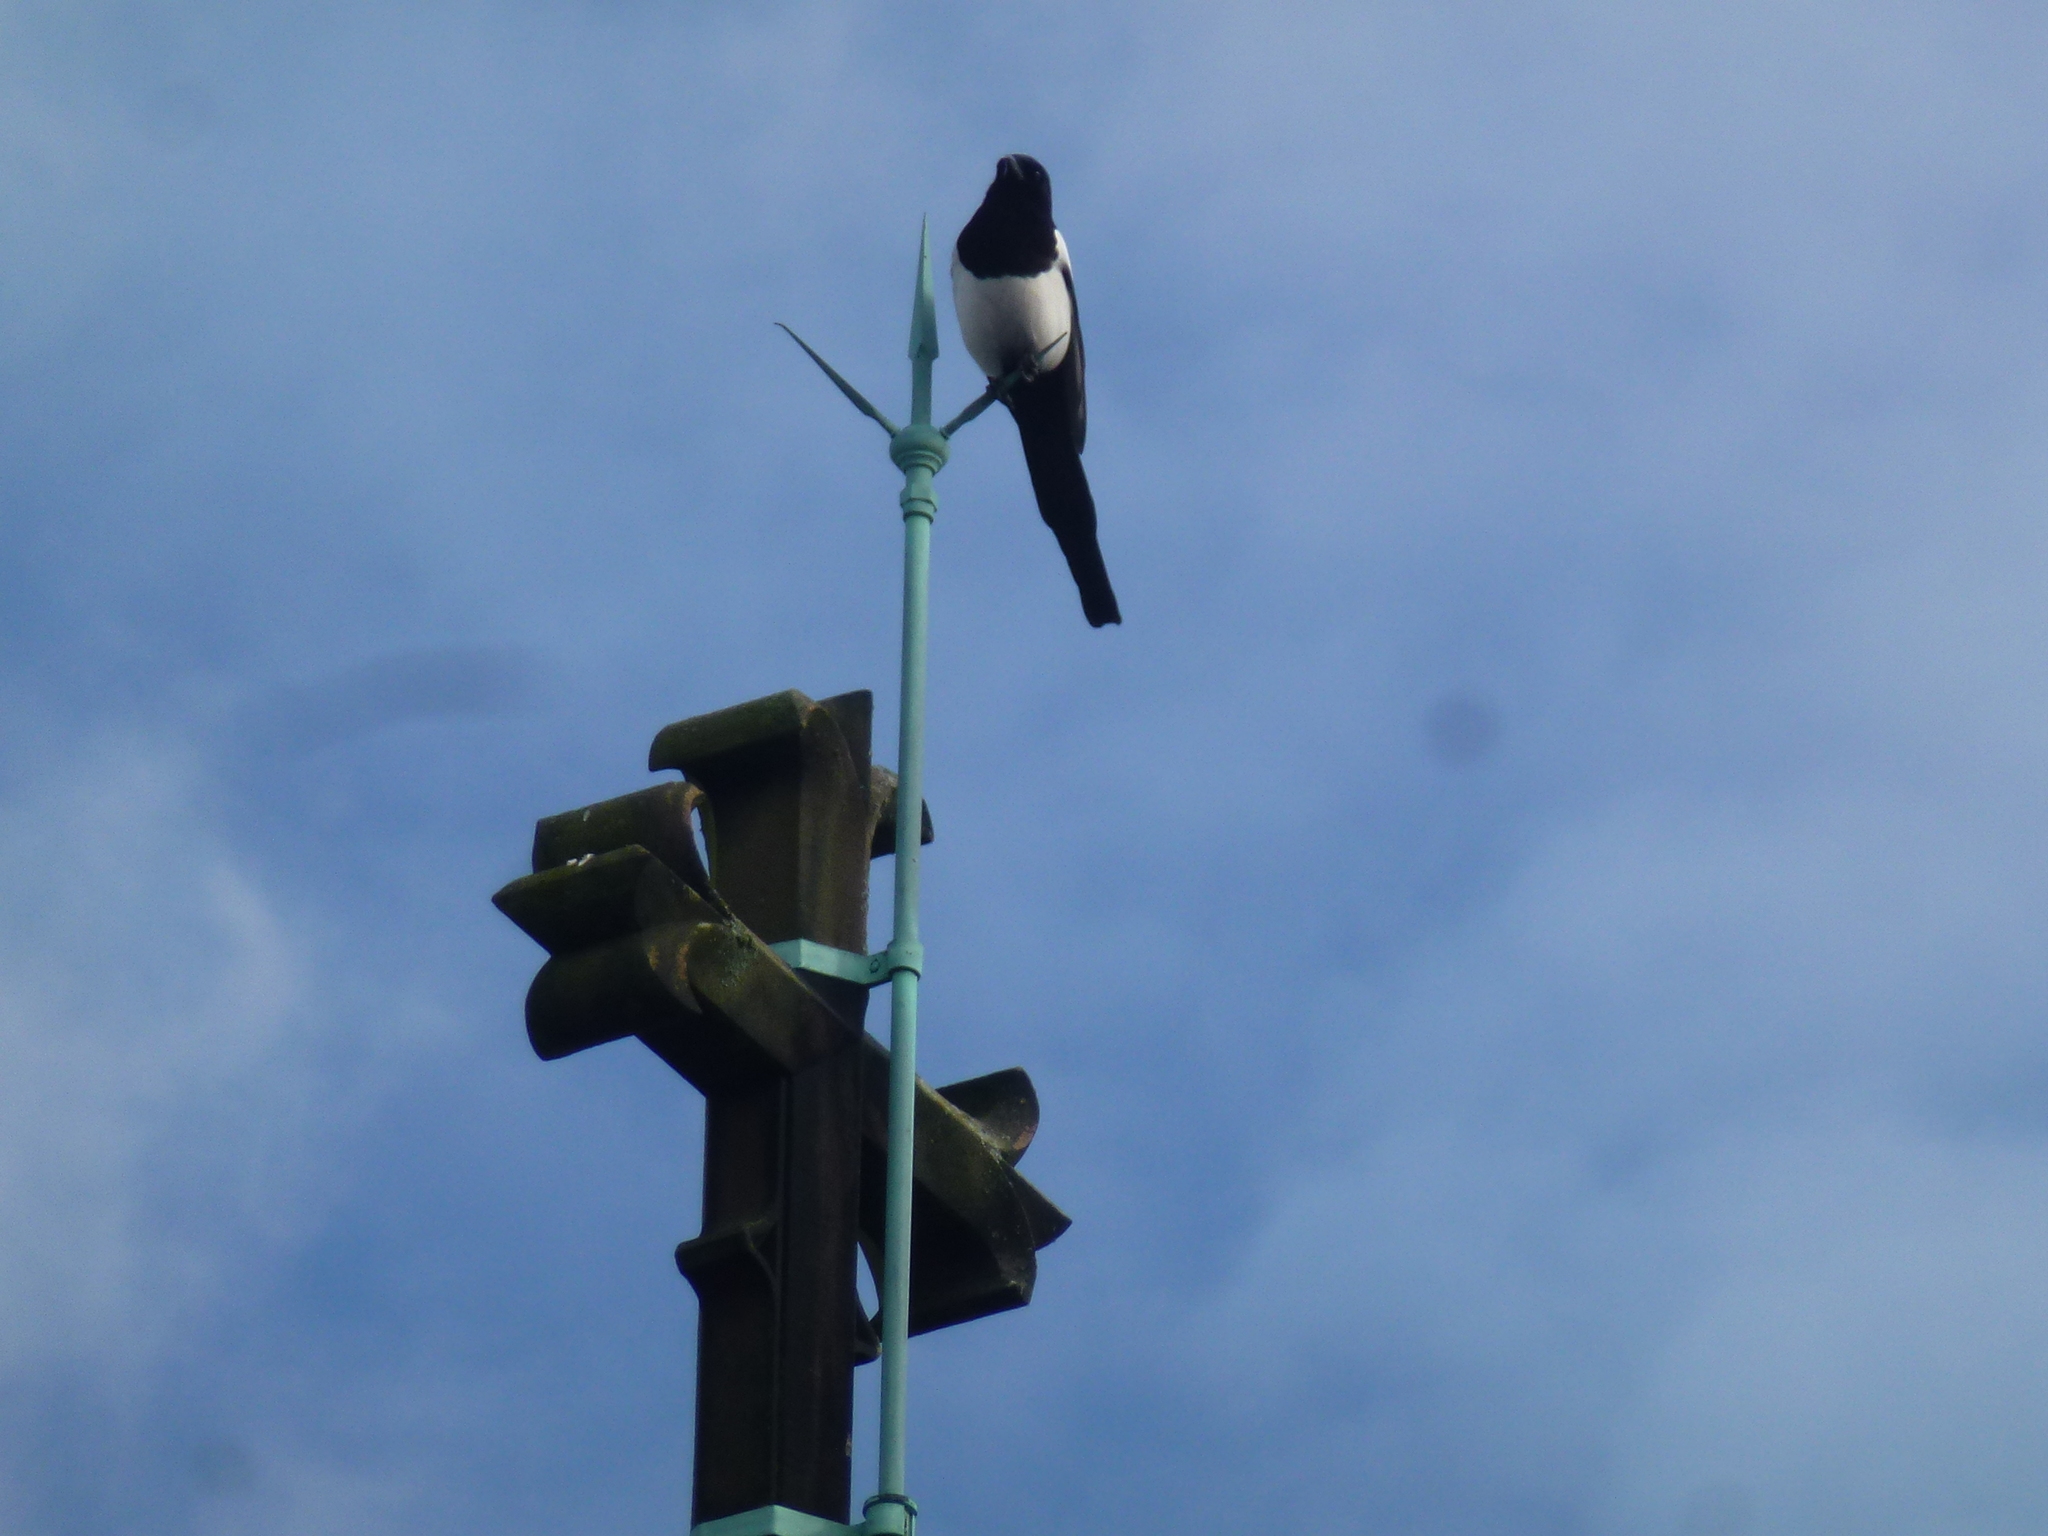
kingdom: Animalia
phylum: Chordata
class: Aves
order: Passeriformes
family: Corvidae
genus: Pica
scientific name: Pica pica
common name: Eurasian magpie
